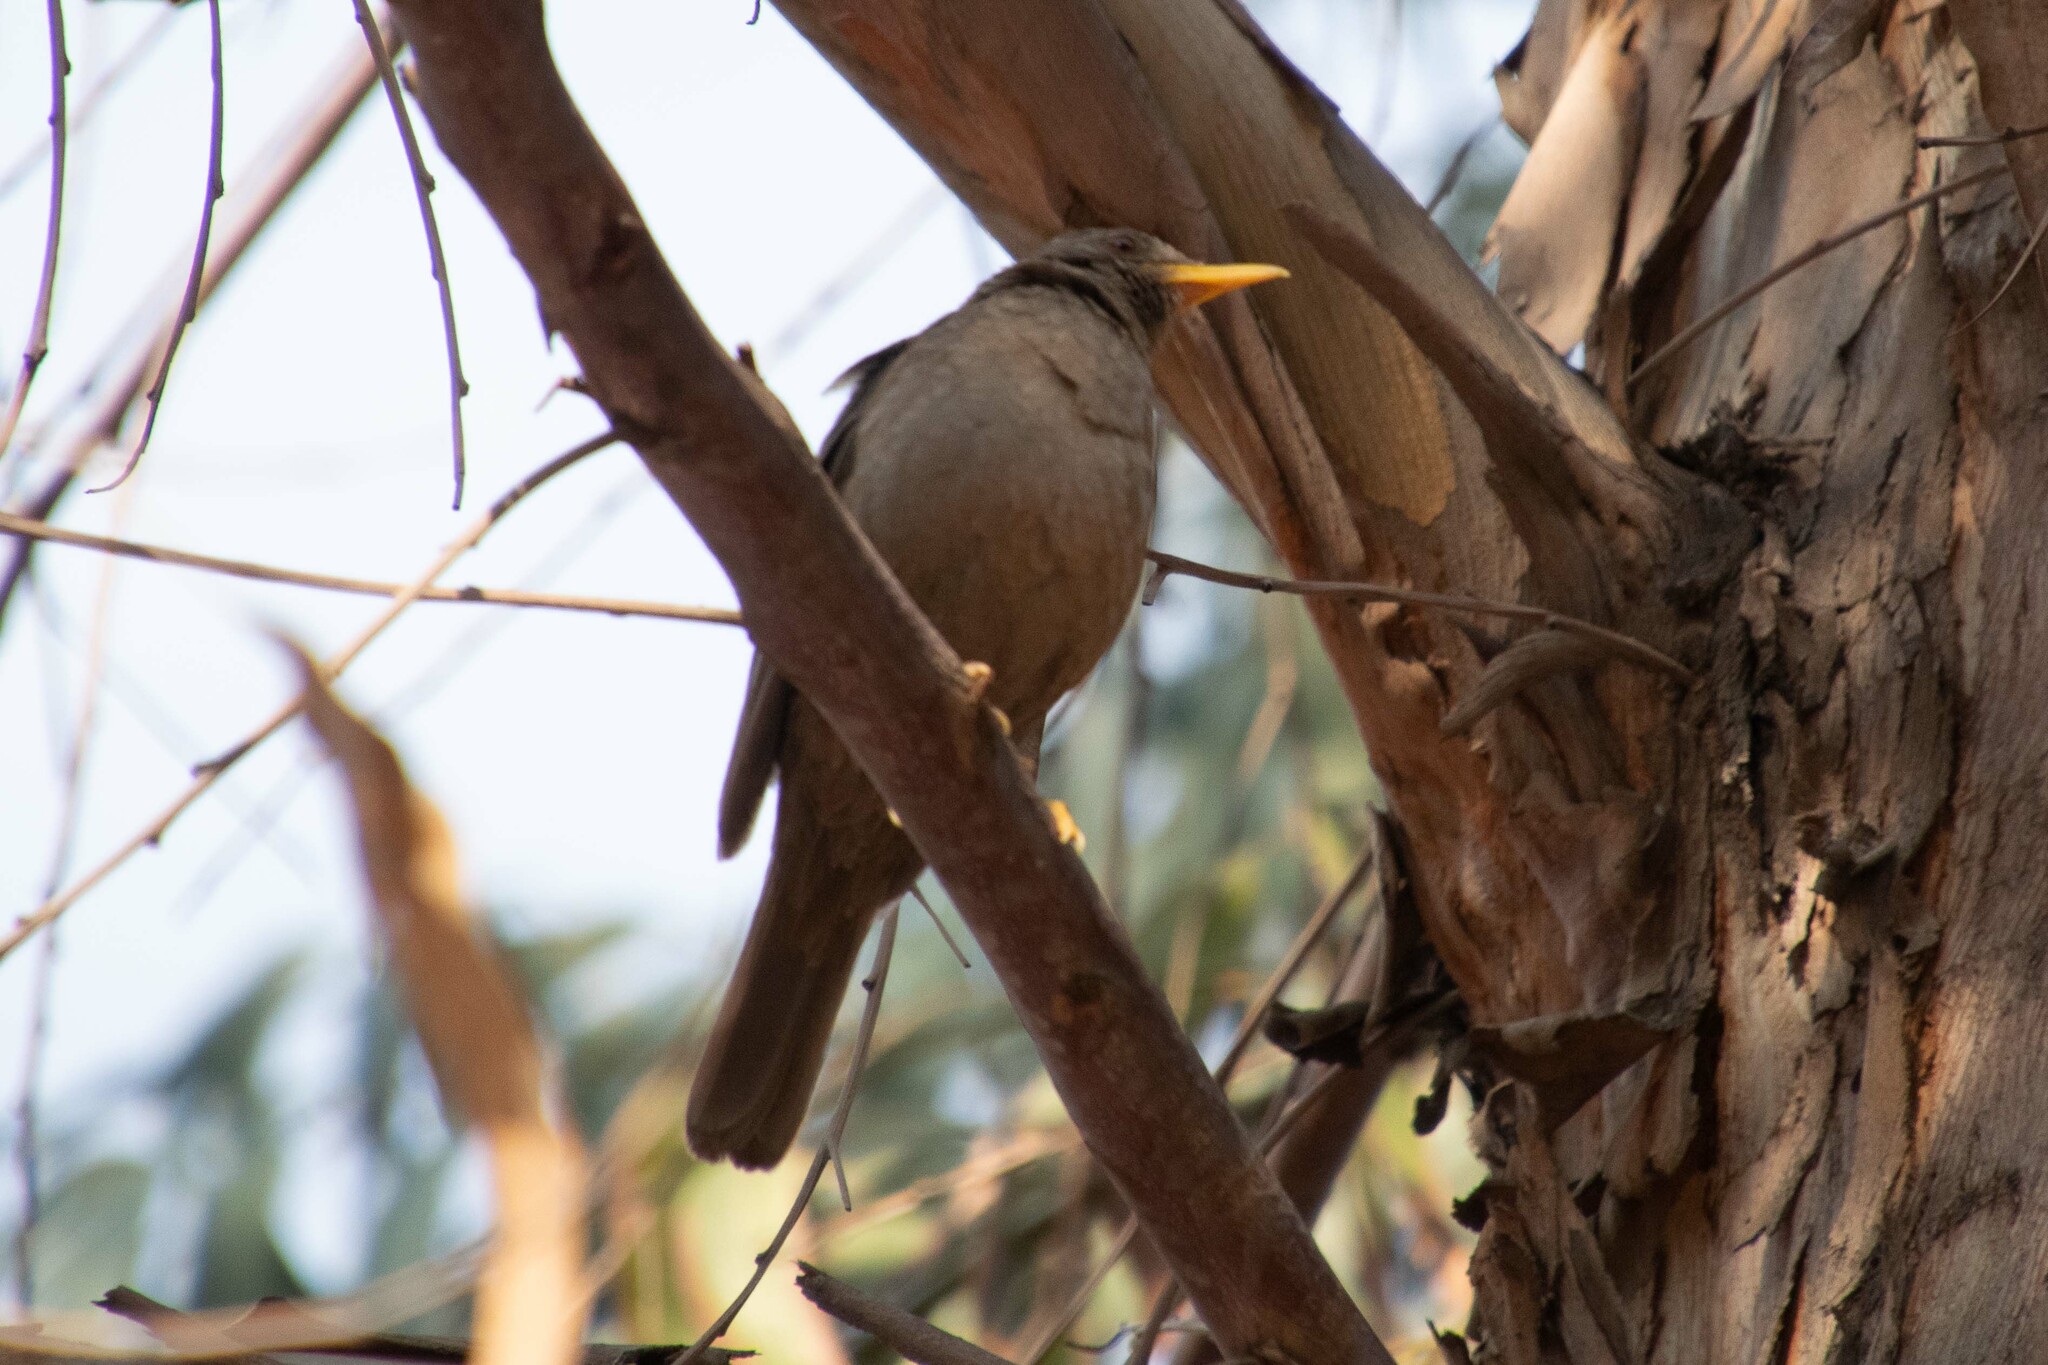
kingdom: Animalia
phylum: Chordata
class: Aves
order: Passeriformes
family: Turdidae
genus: Turdus
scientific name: Turdus chiguanco
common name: Chiguanco thrush
